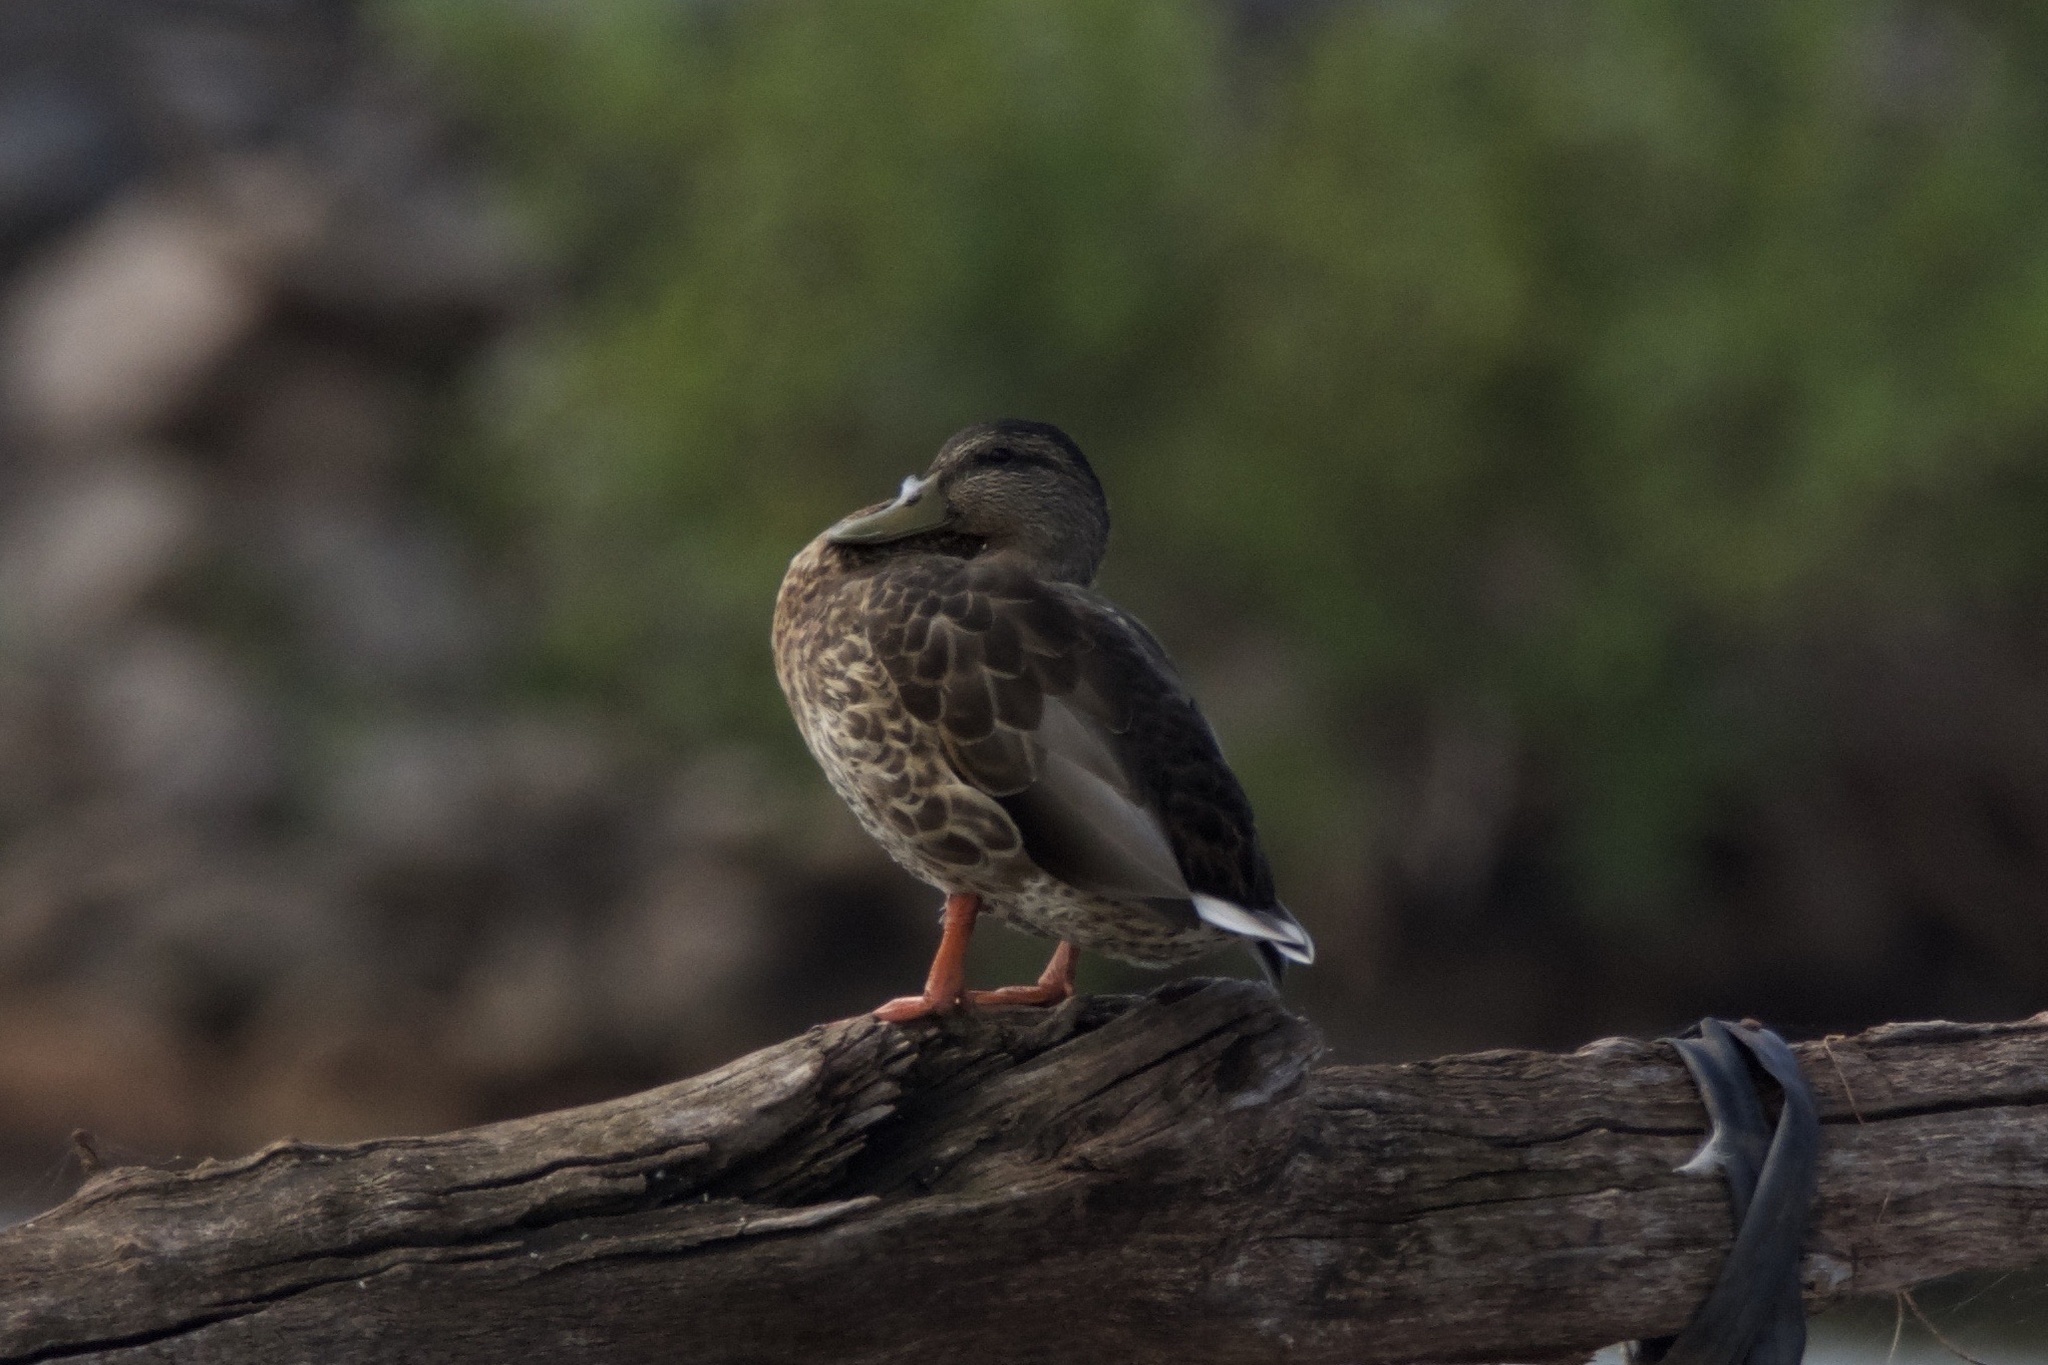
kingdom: Animalia
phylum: Chordata
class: Aves
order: Anseriformes
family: Anatidae
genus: Anas
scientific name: Anas platyrhynchos
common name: Mallard
